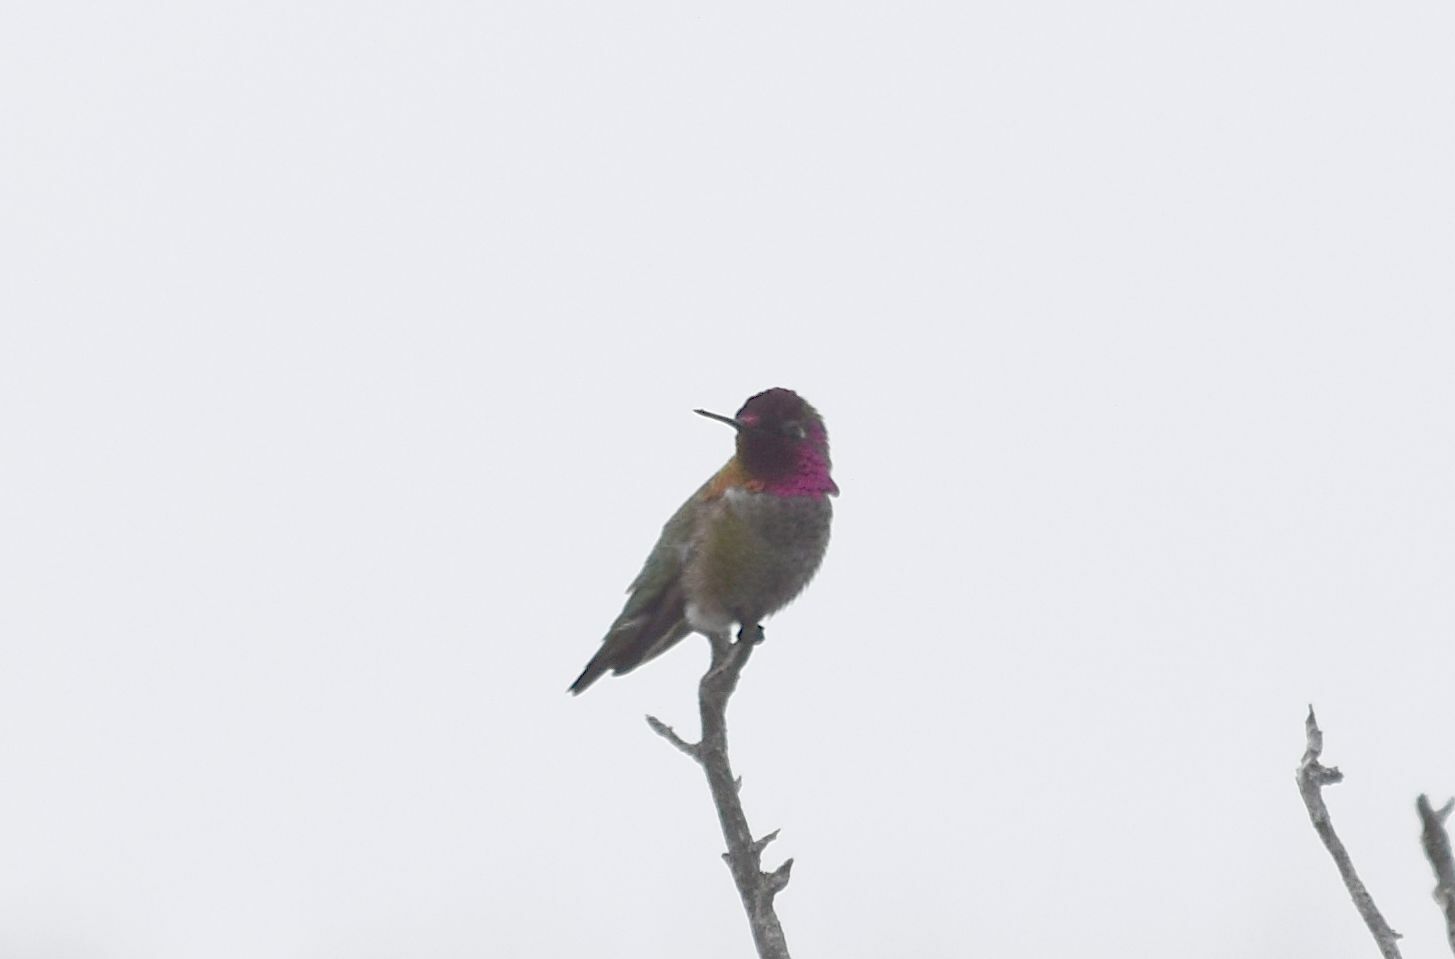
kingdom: Animalia
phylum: Chordata
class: Aves
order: Apodiformes
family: Trochilidae
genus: Calypte
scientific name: Calypte anna
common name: Anna's hummingbird
